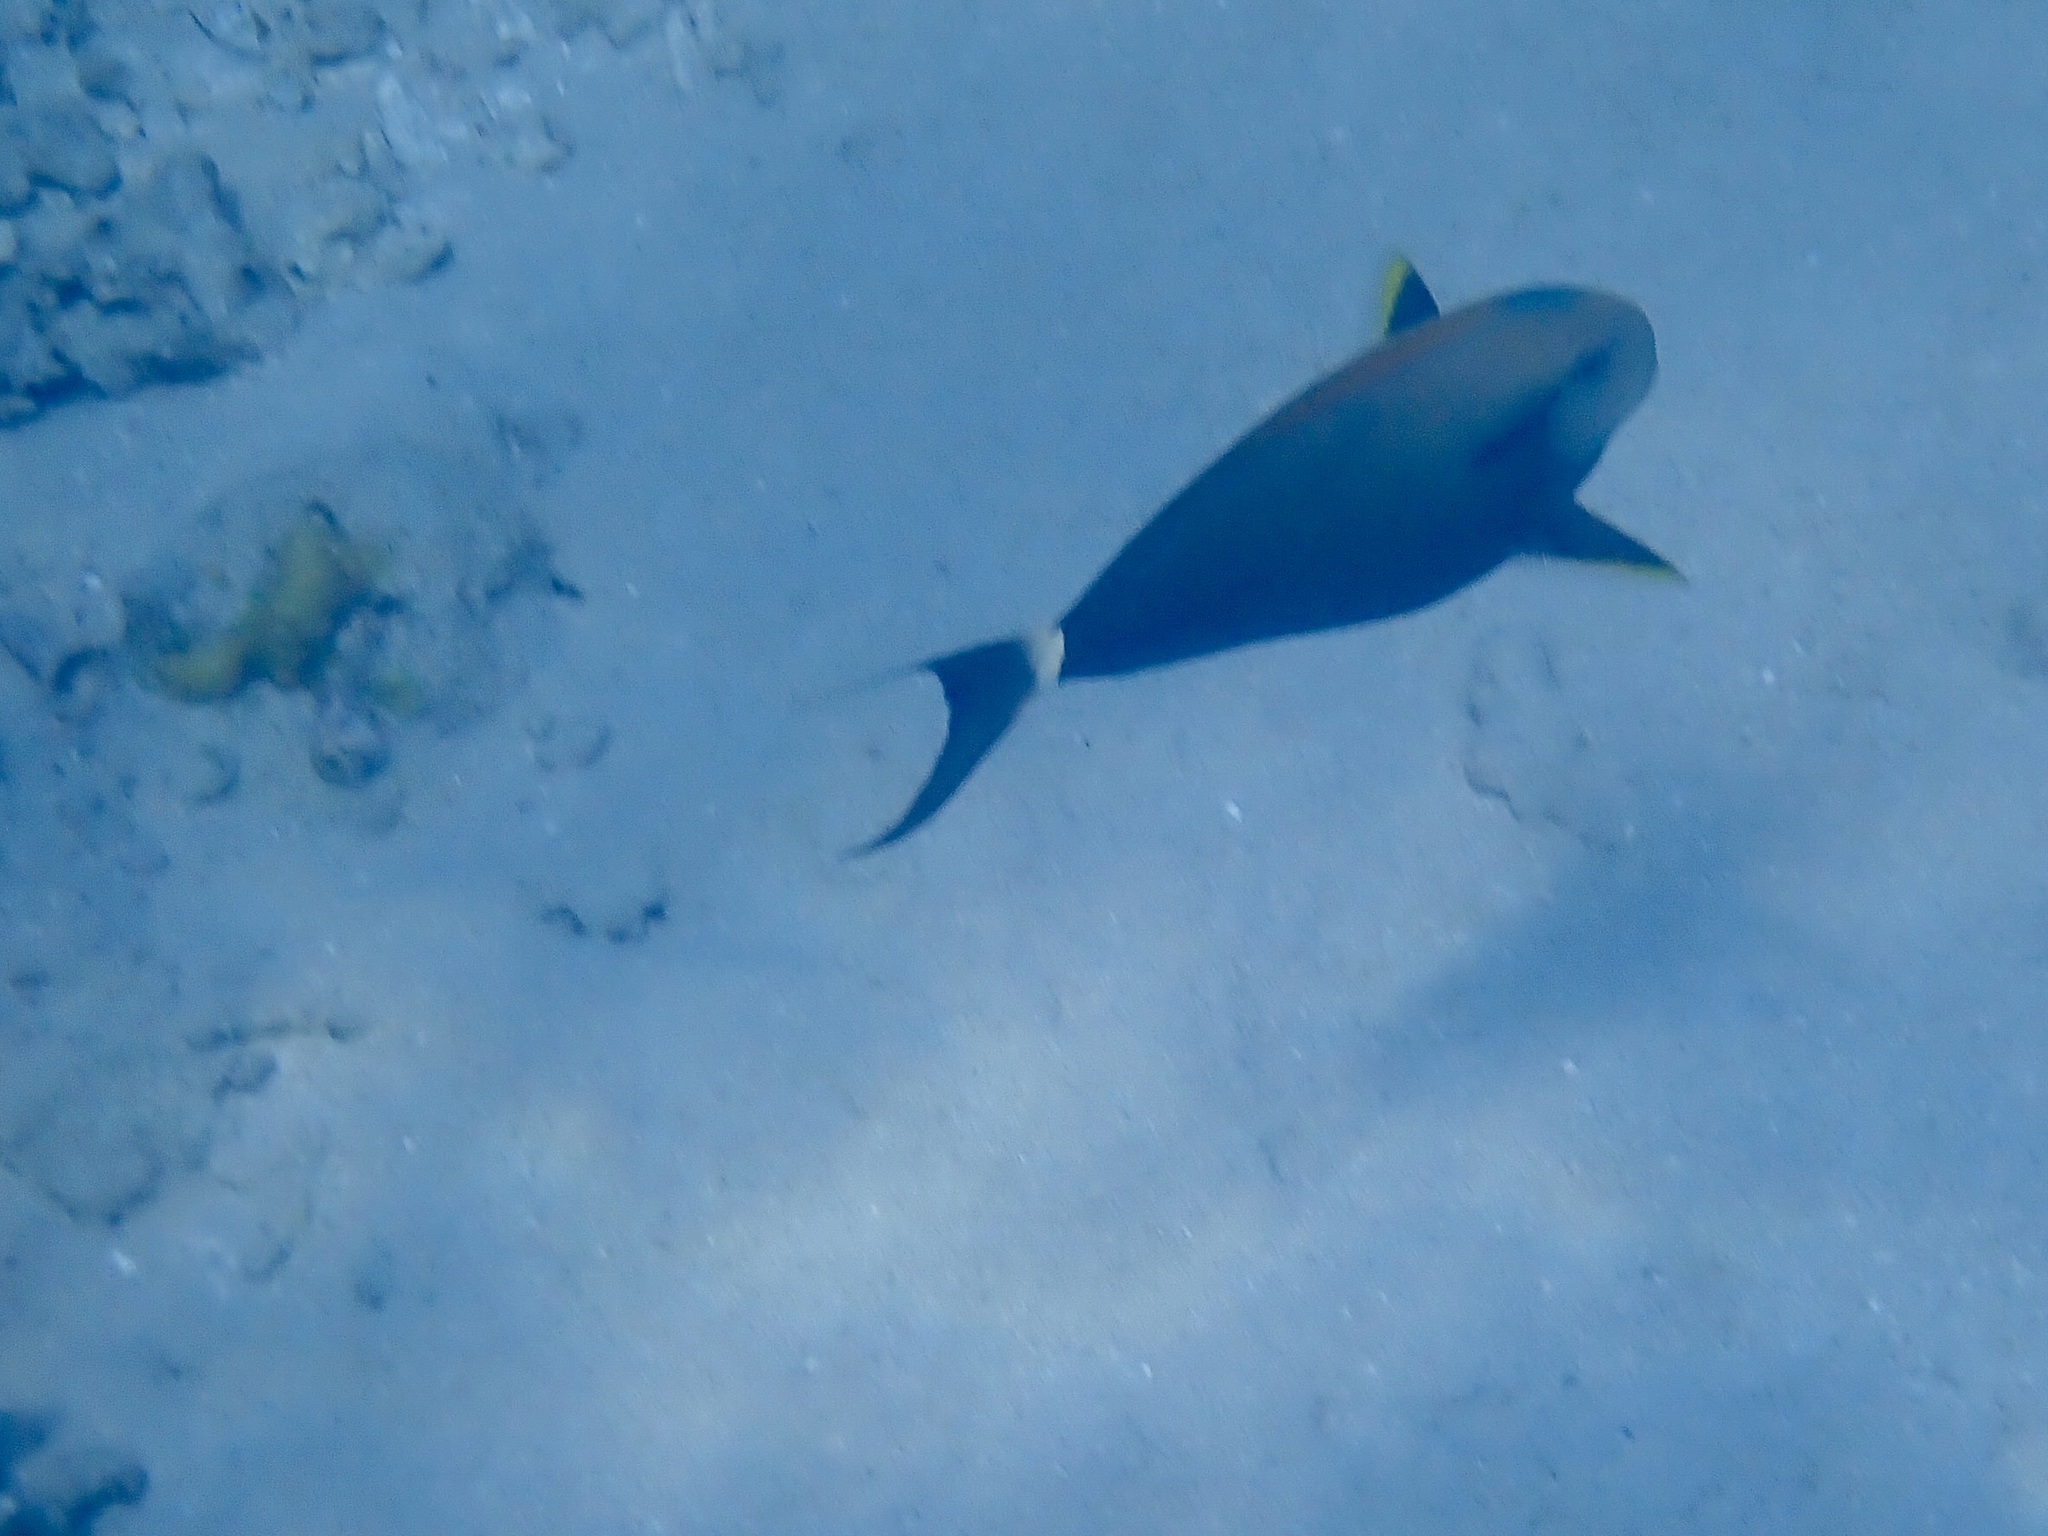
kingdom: Animalia
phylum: Chordata
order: Perciformes
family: Acanthuridae
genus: Acanthurus
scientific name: Acanthurus nigricauda
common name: Black-barred surgeonfish
